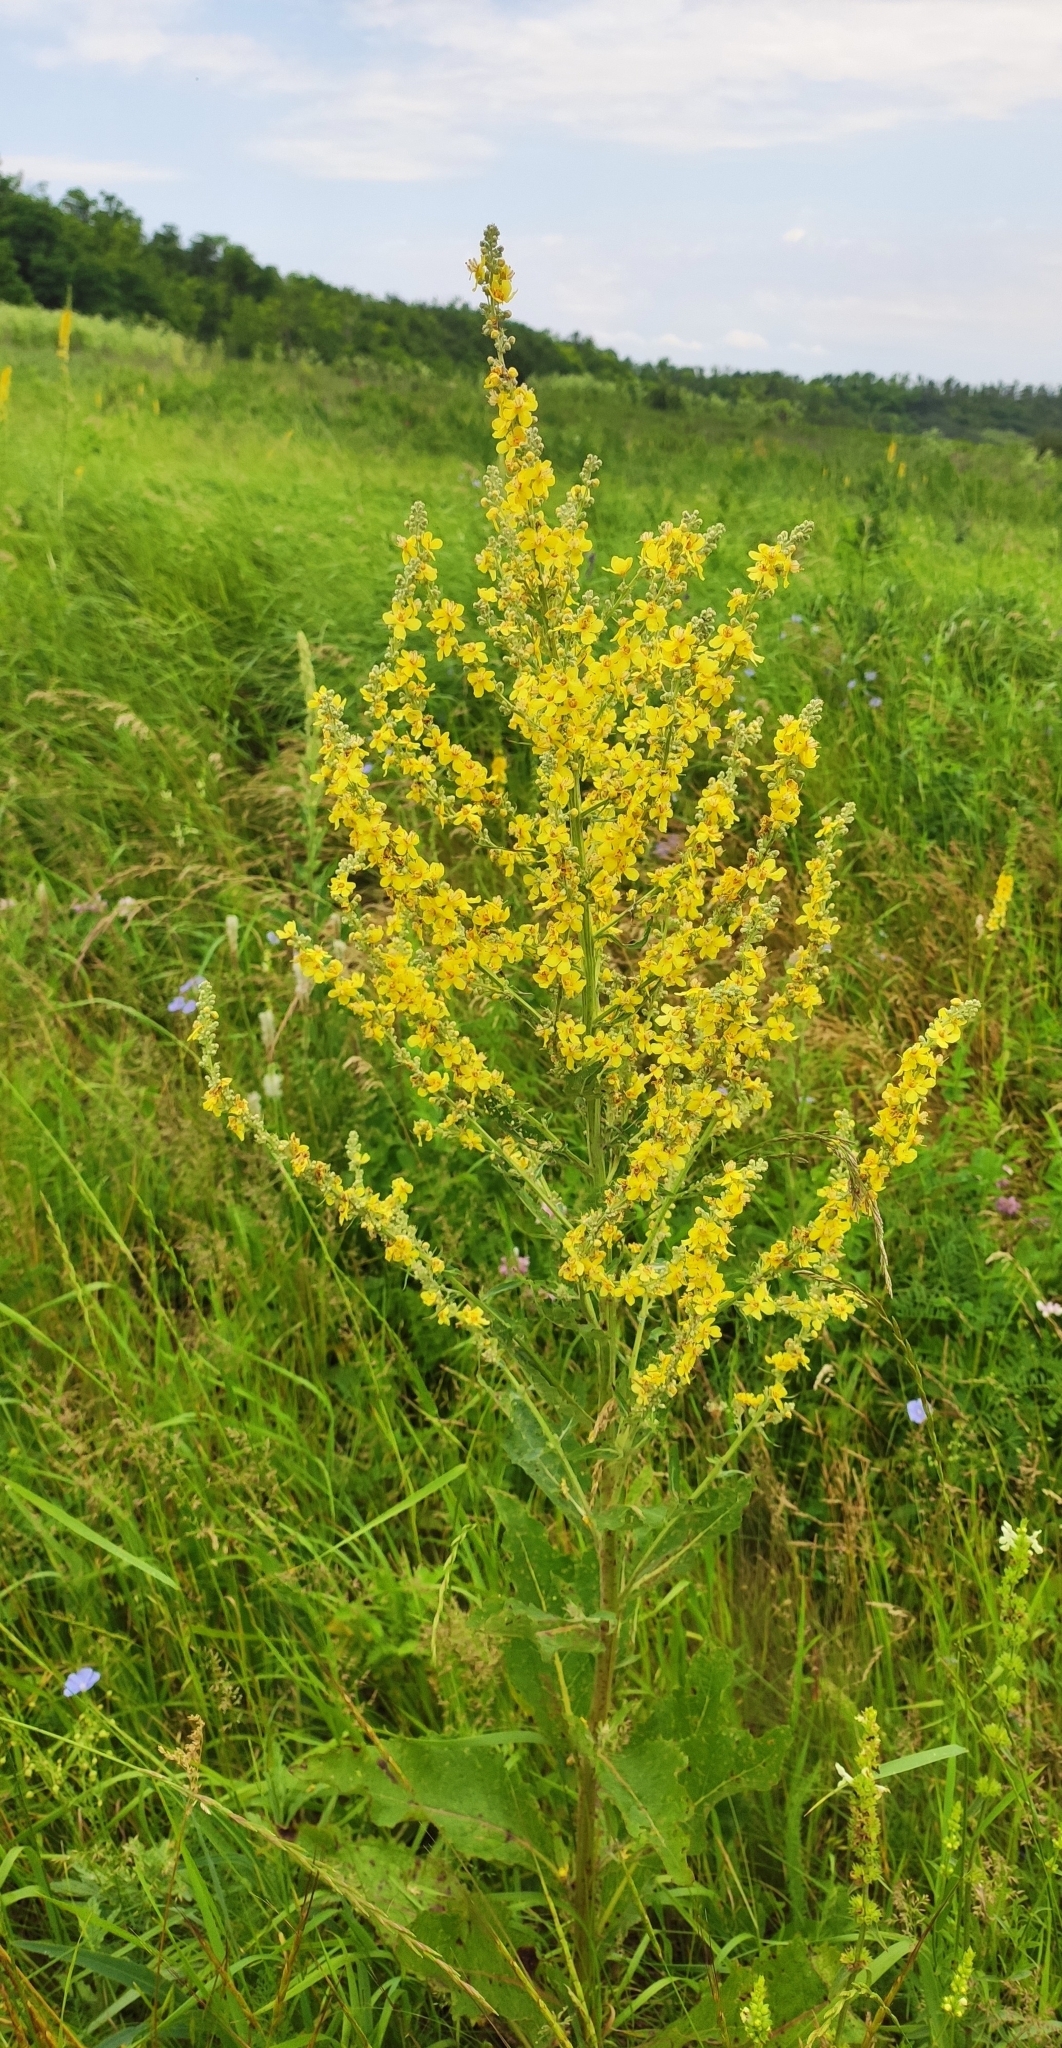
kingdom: Plantae
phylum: Tracheophyta
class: Magnoliopsida
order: Lamiales
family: Scrophulariaceae
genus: Verbascum
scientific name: Verbascum lychnitis
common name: White mullein
